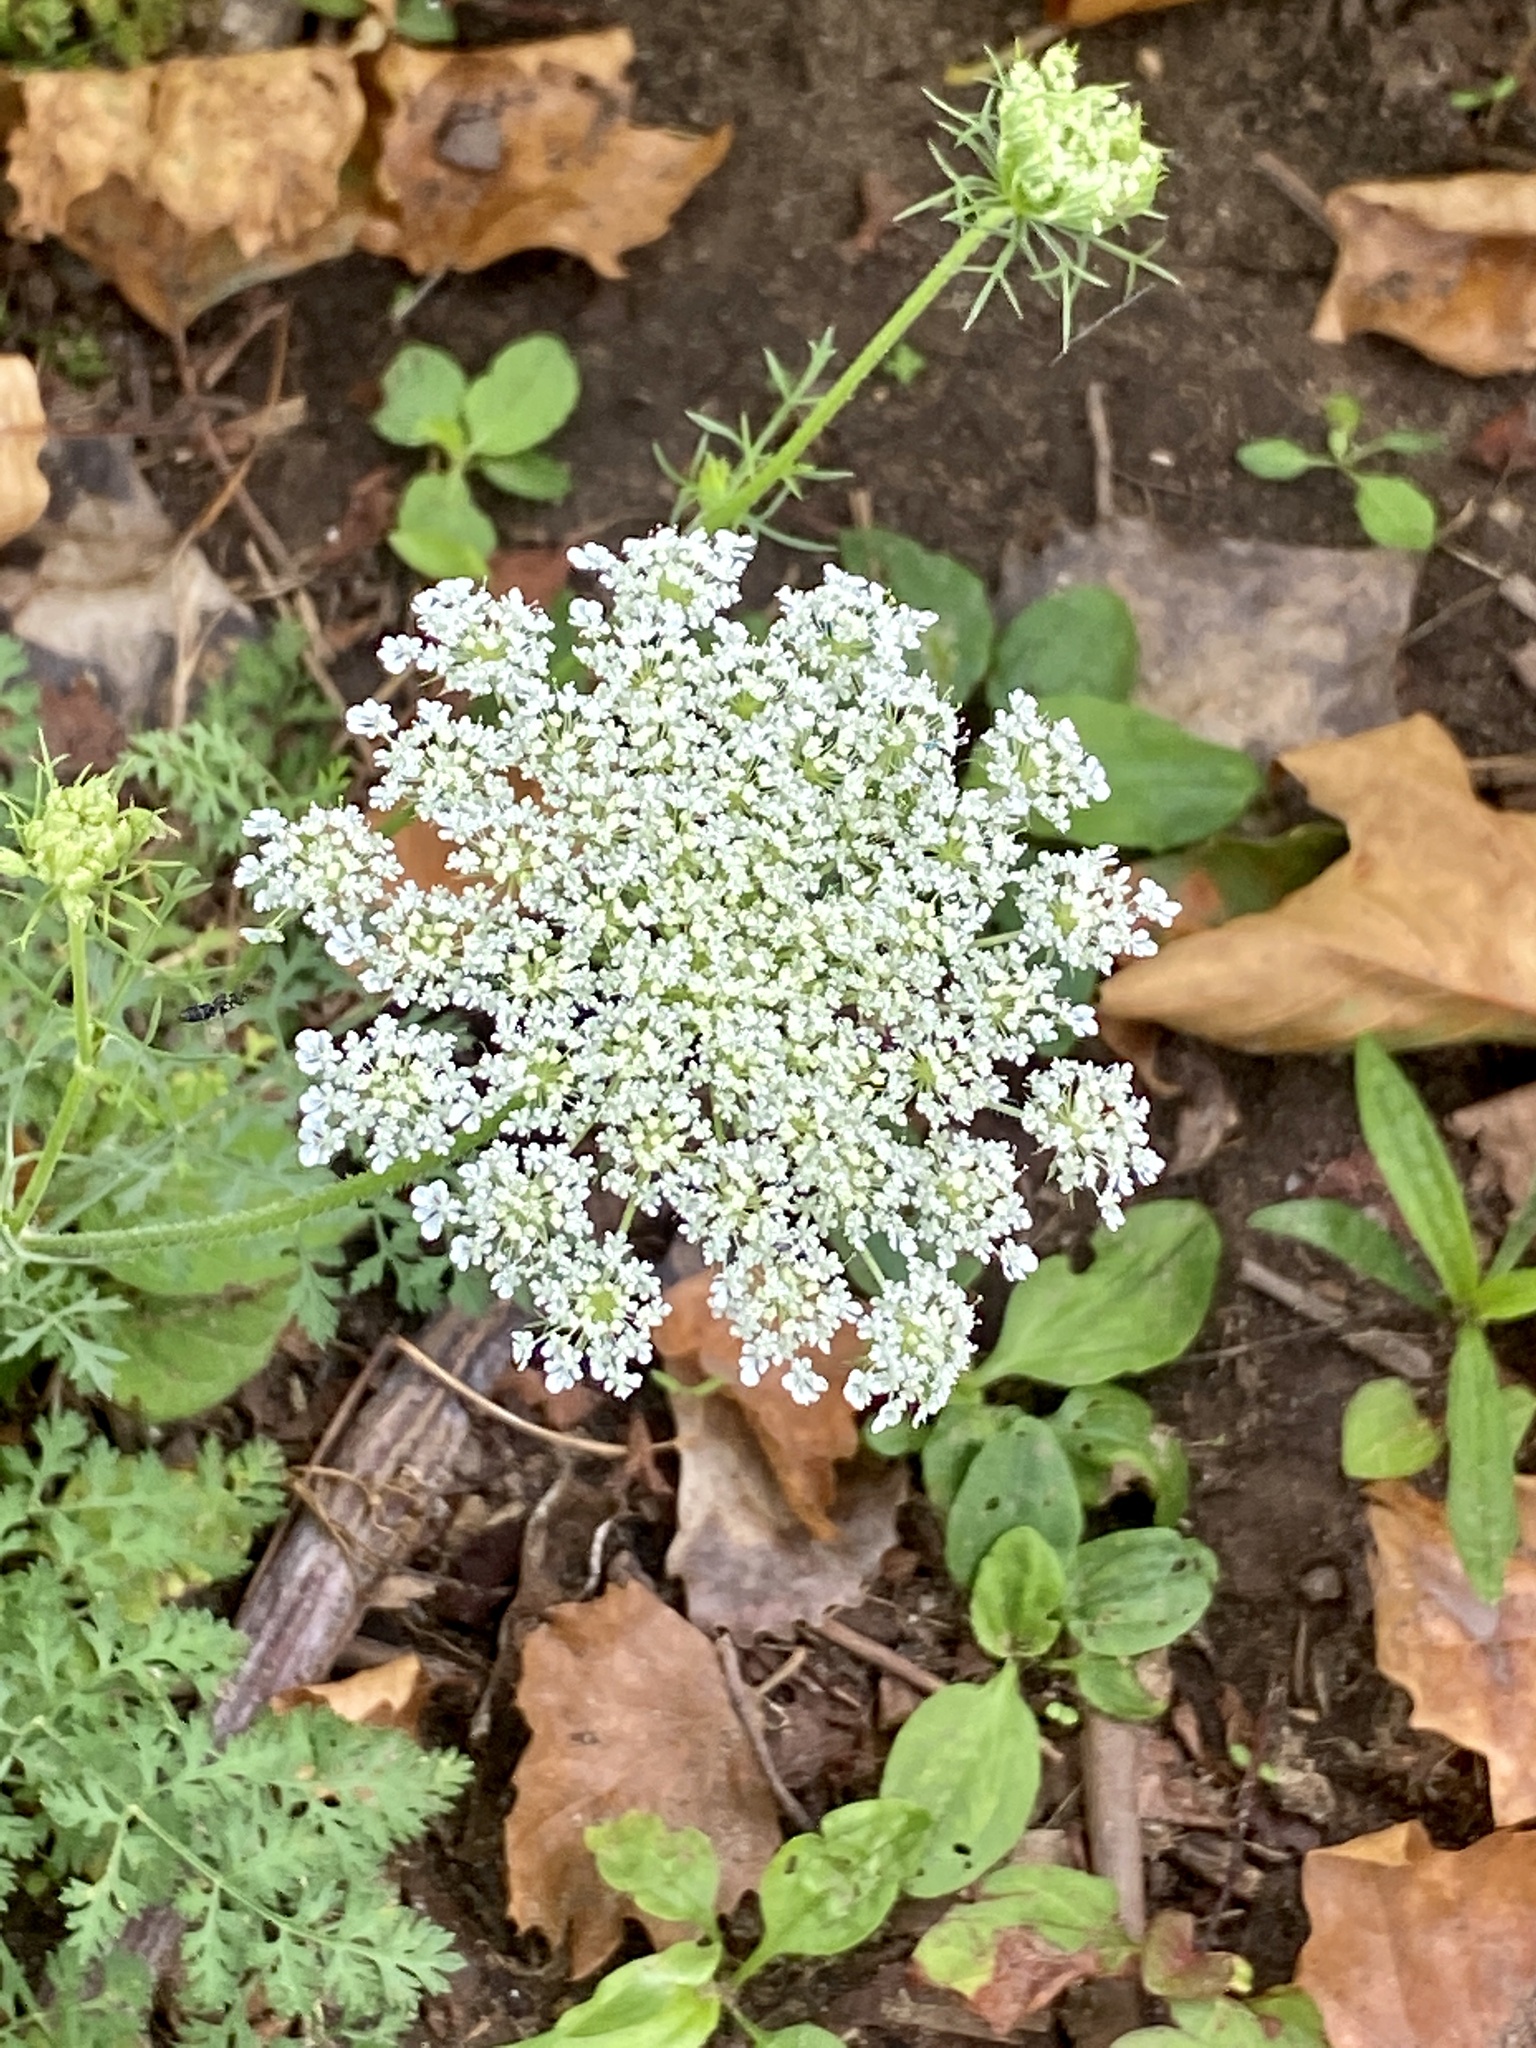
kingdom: Plantae
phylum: Tracheophyta
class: Magnoliopsida
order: Apiales
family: Apiaceae
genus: Daucus
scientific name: Daucus carota
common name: Wild carrot
